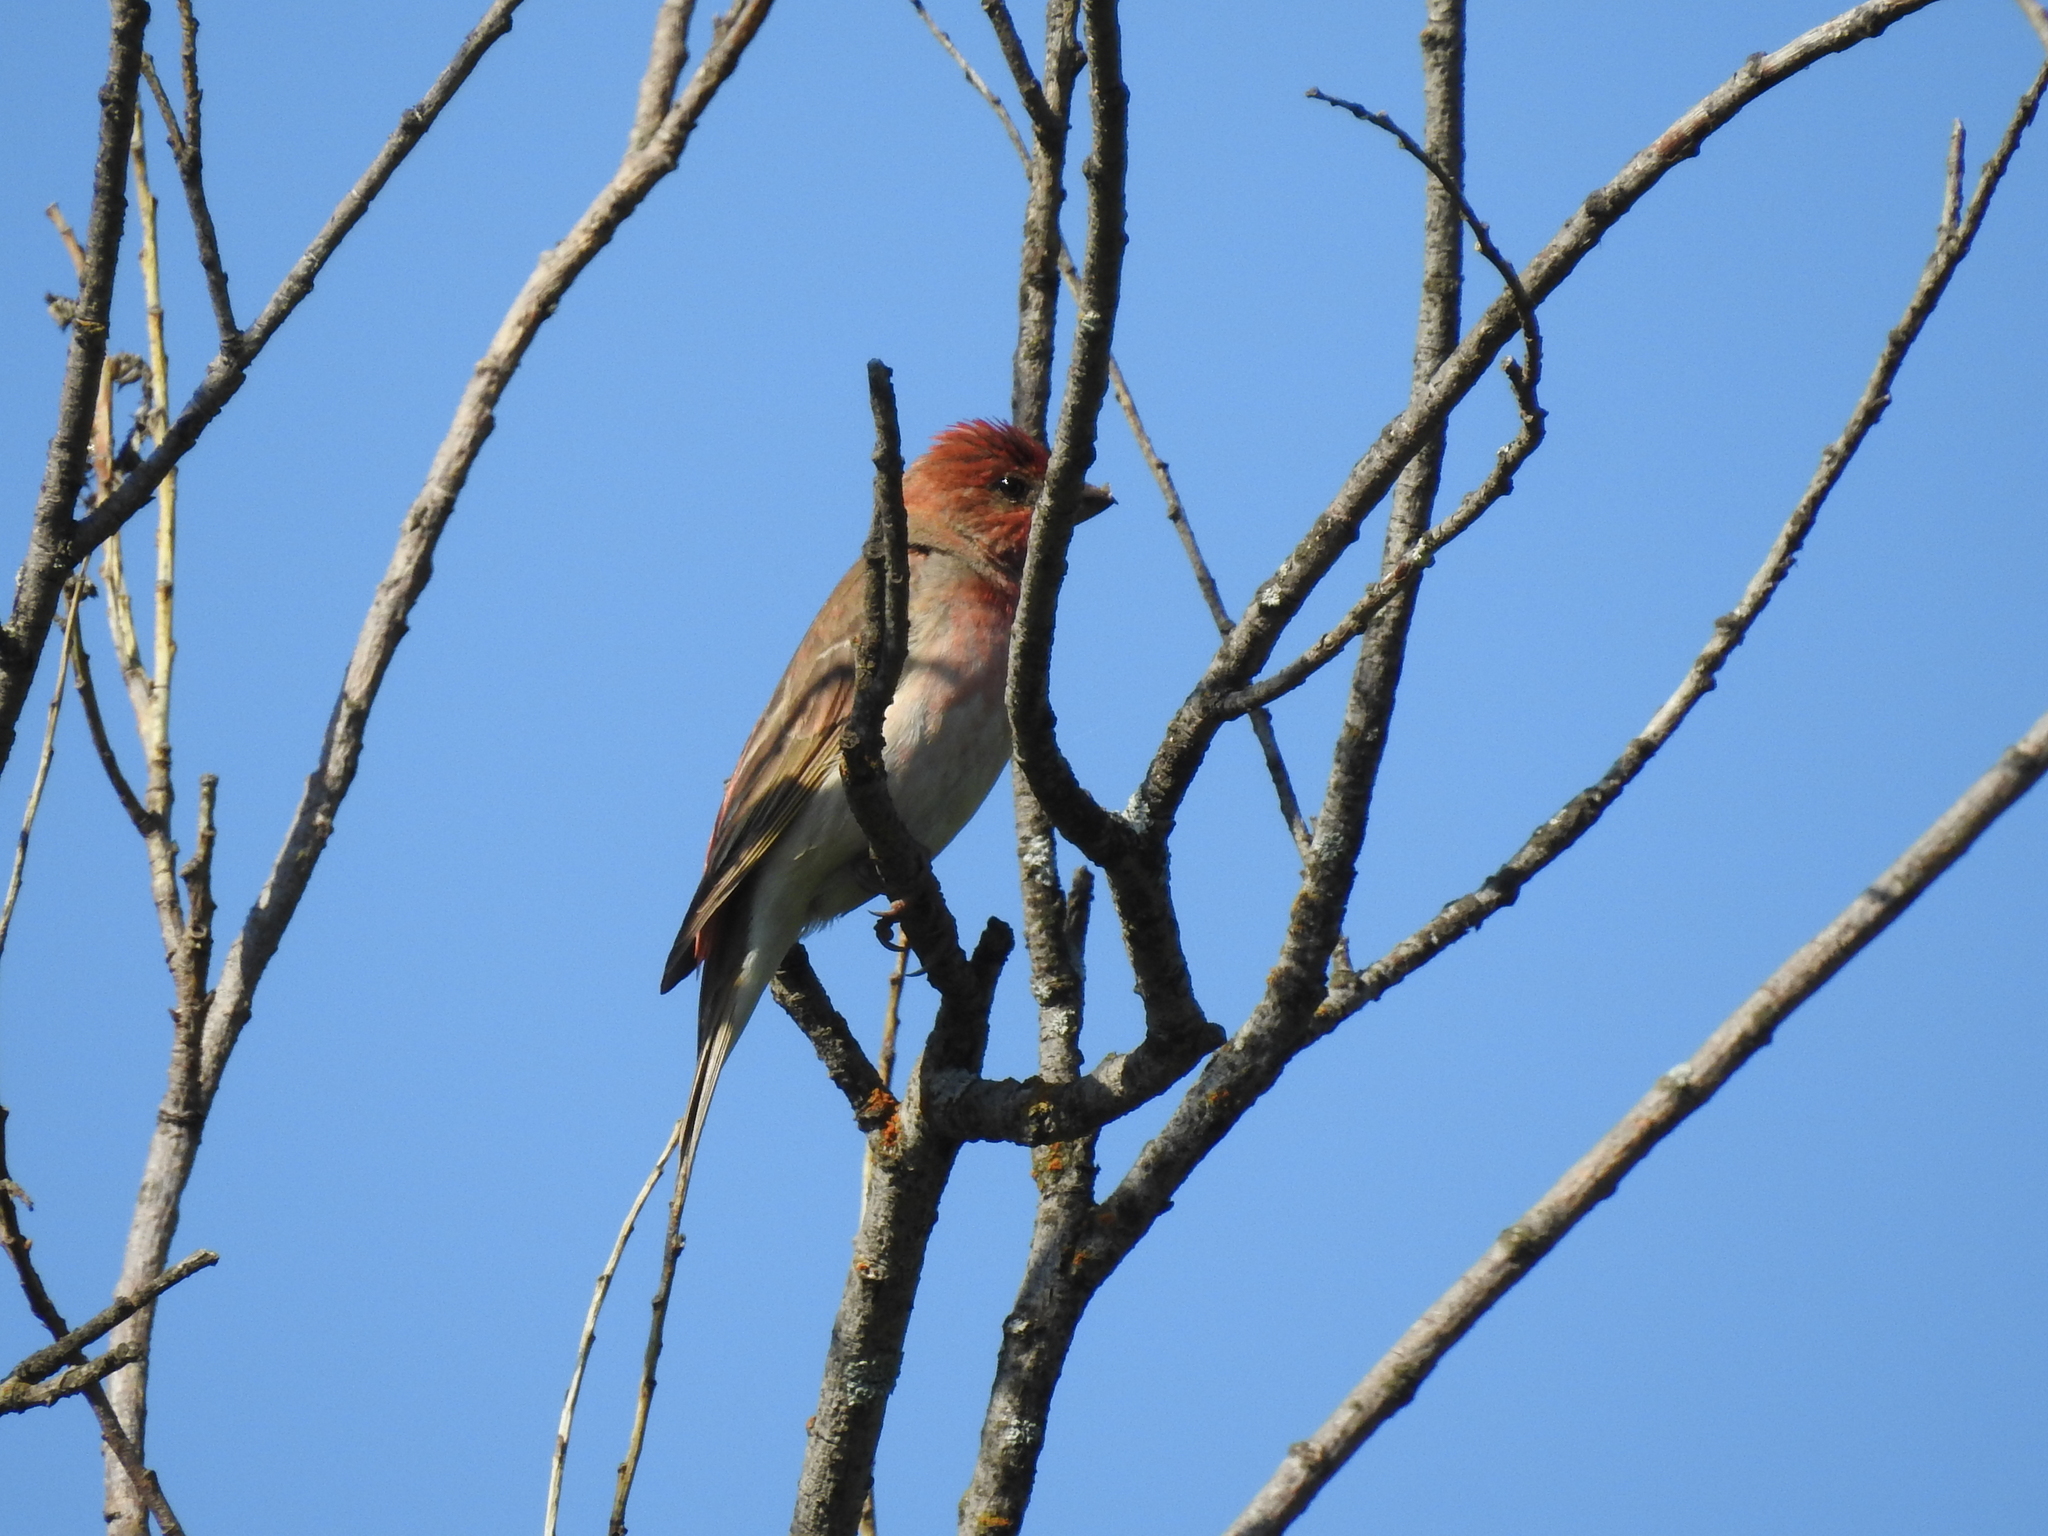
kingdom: Animalia
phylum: Chordata
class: Aves
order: Passeriformes
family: Fringillidae
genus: Carpodacus
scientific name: Carpodacus erythrinus
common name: Common rosefinch
